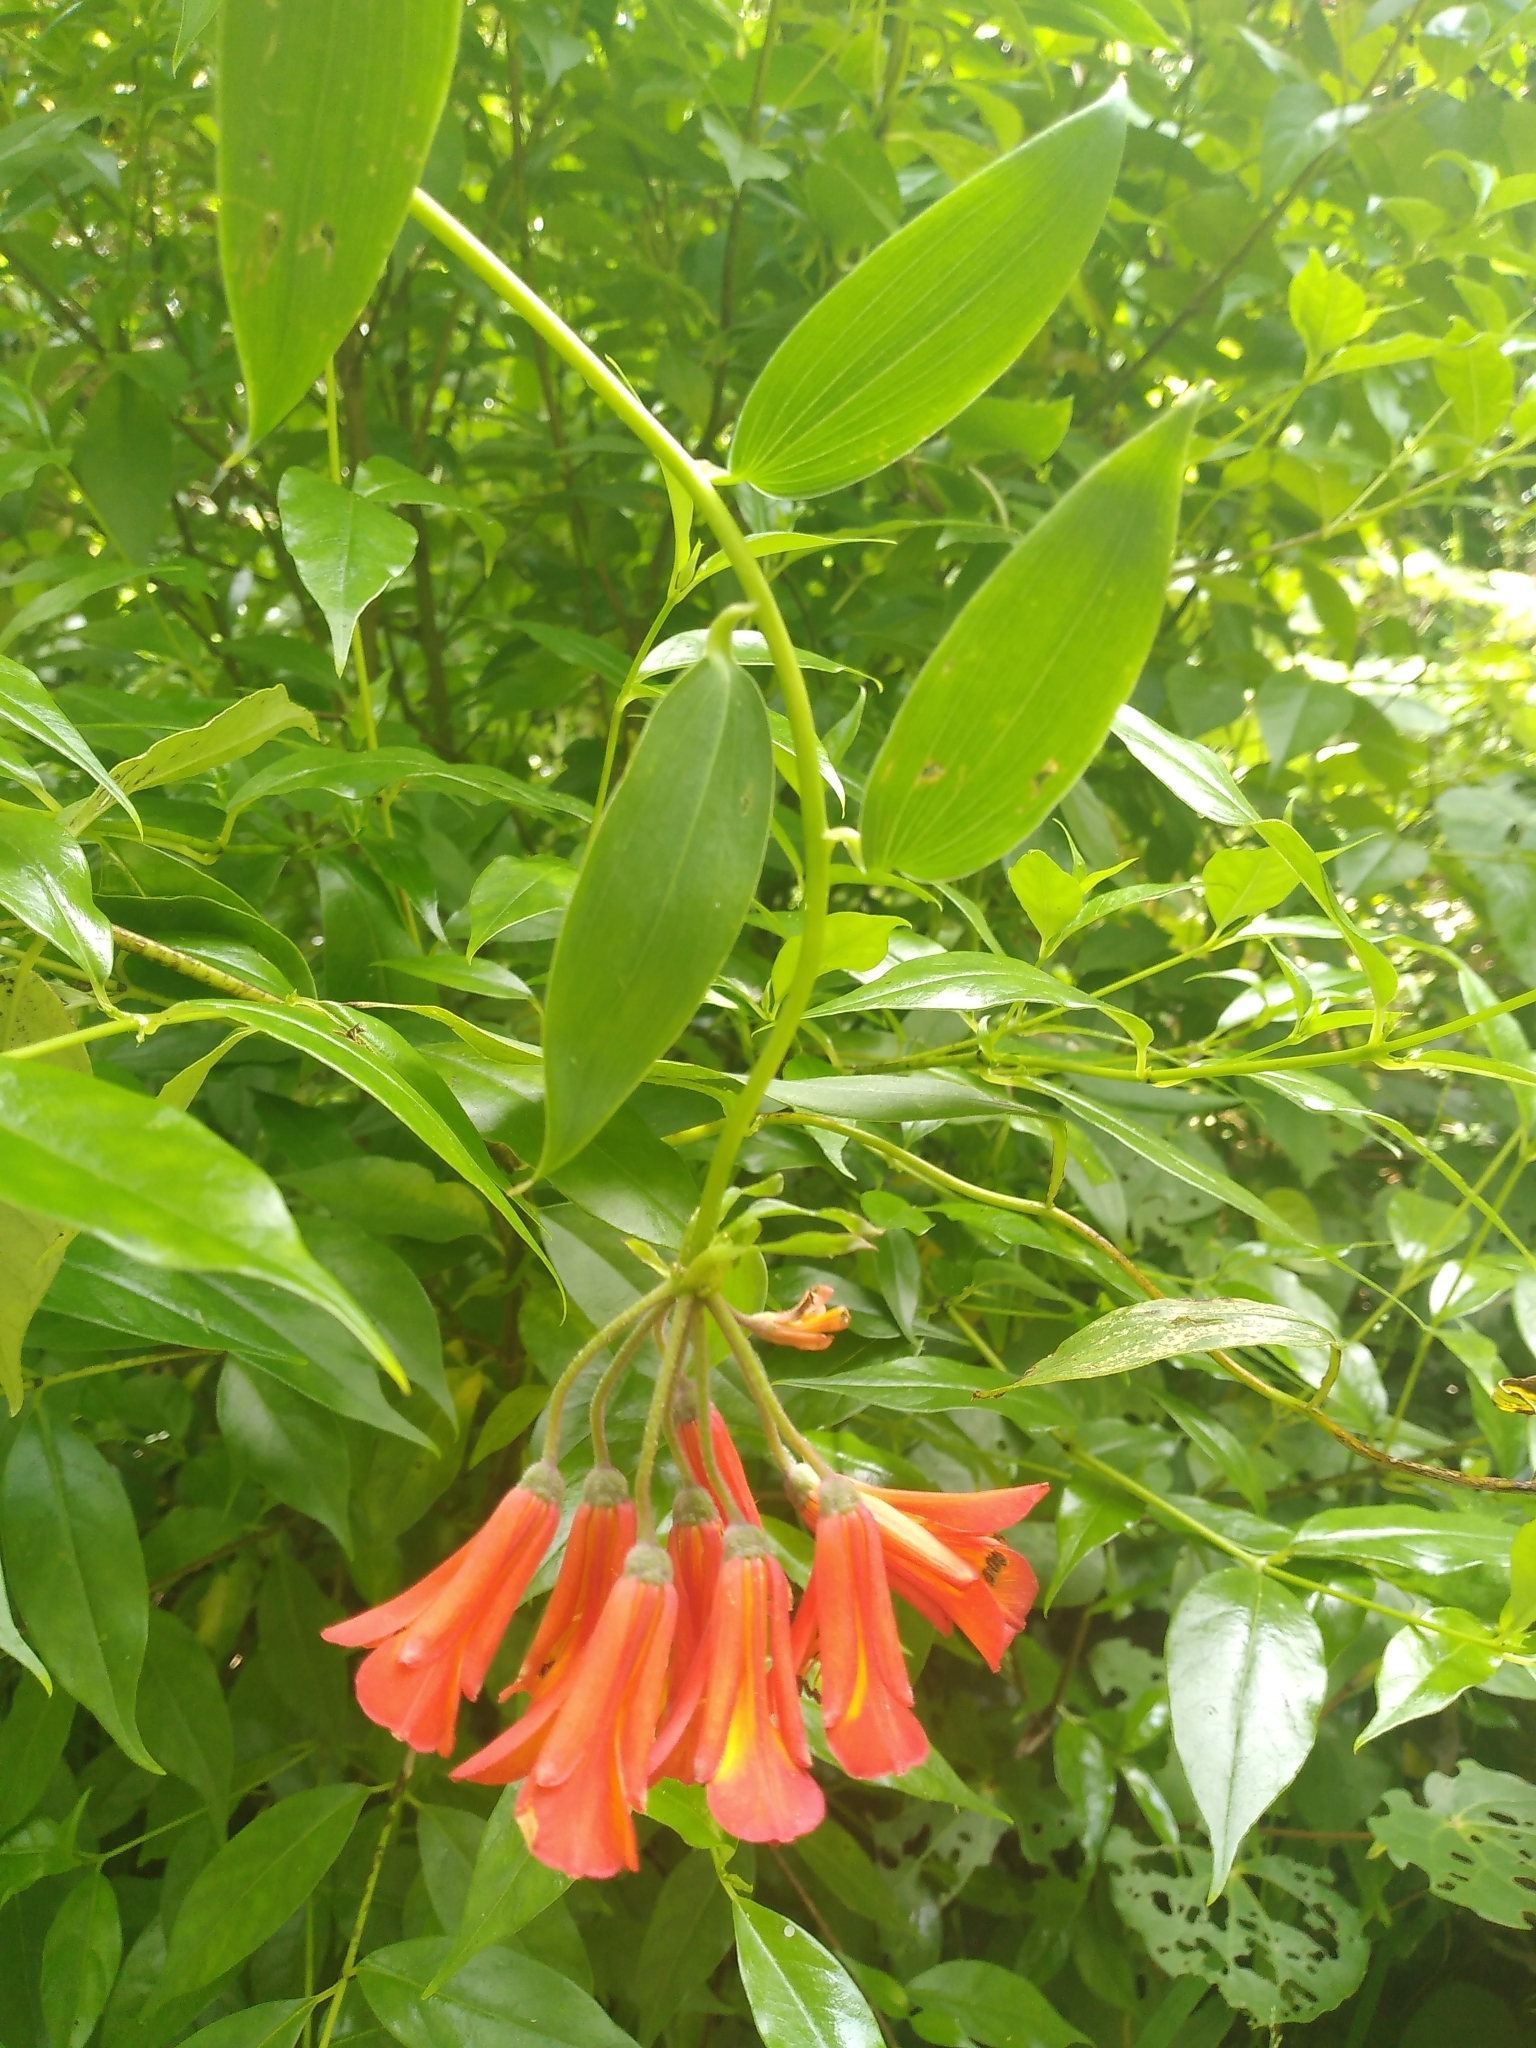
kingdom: Plantae
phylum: Tracheophyta
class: Liliopsida
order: Liliales
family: Alstroemeriaceae
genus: Bomarea
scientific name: Bomarea multiflora
